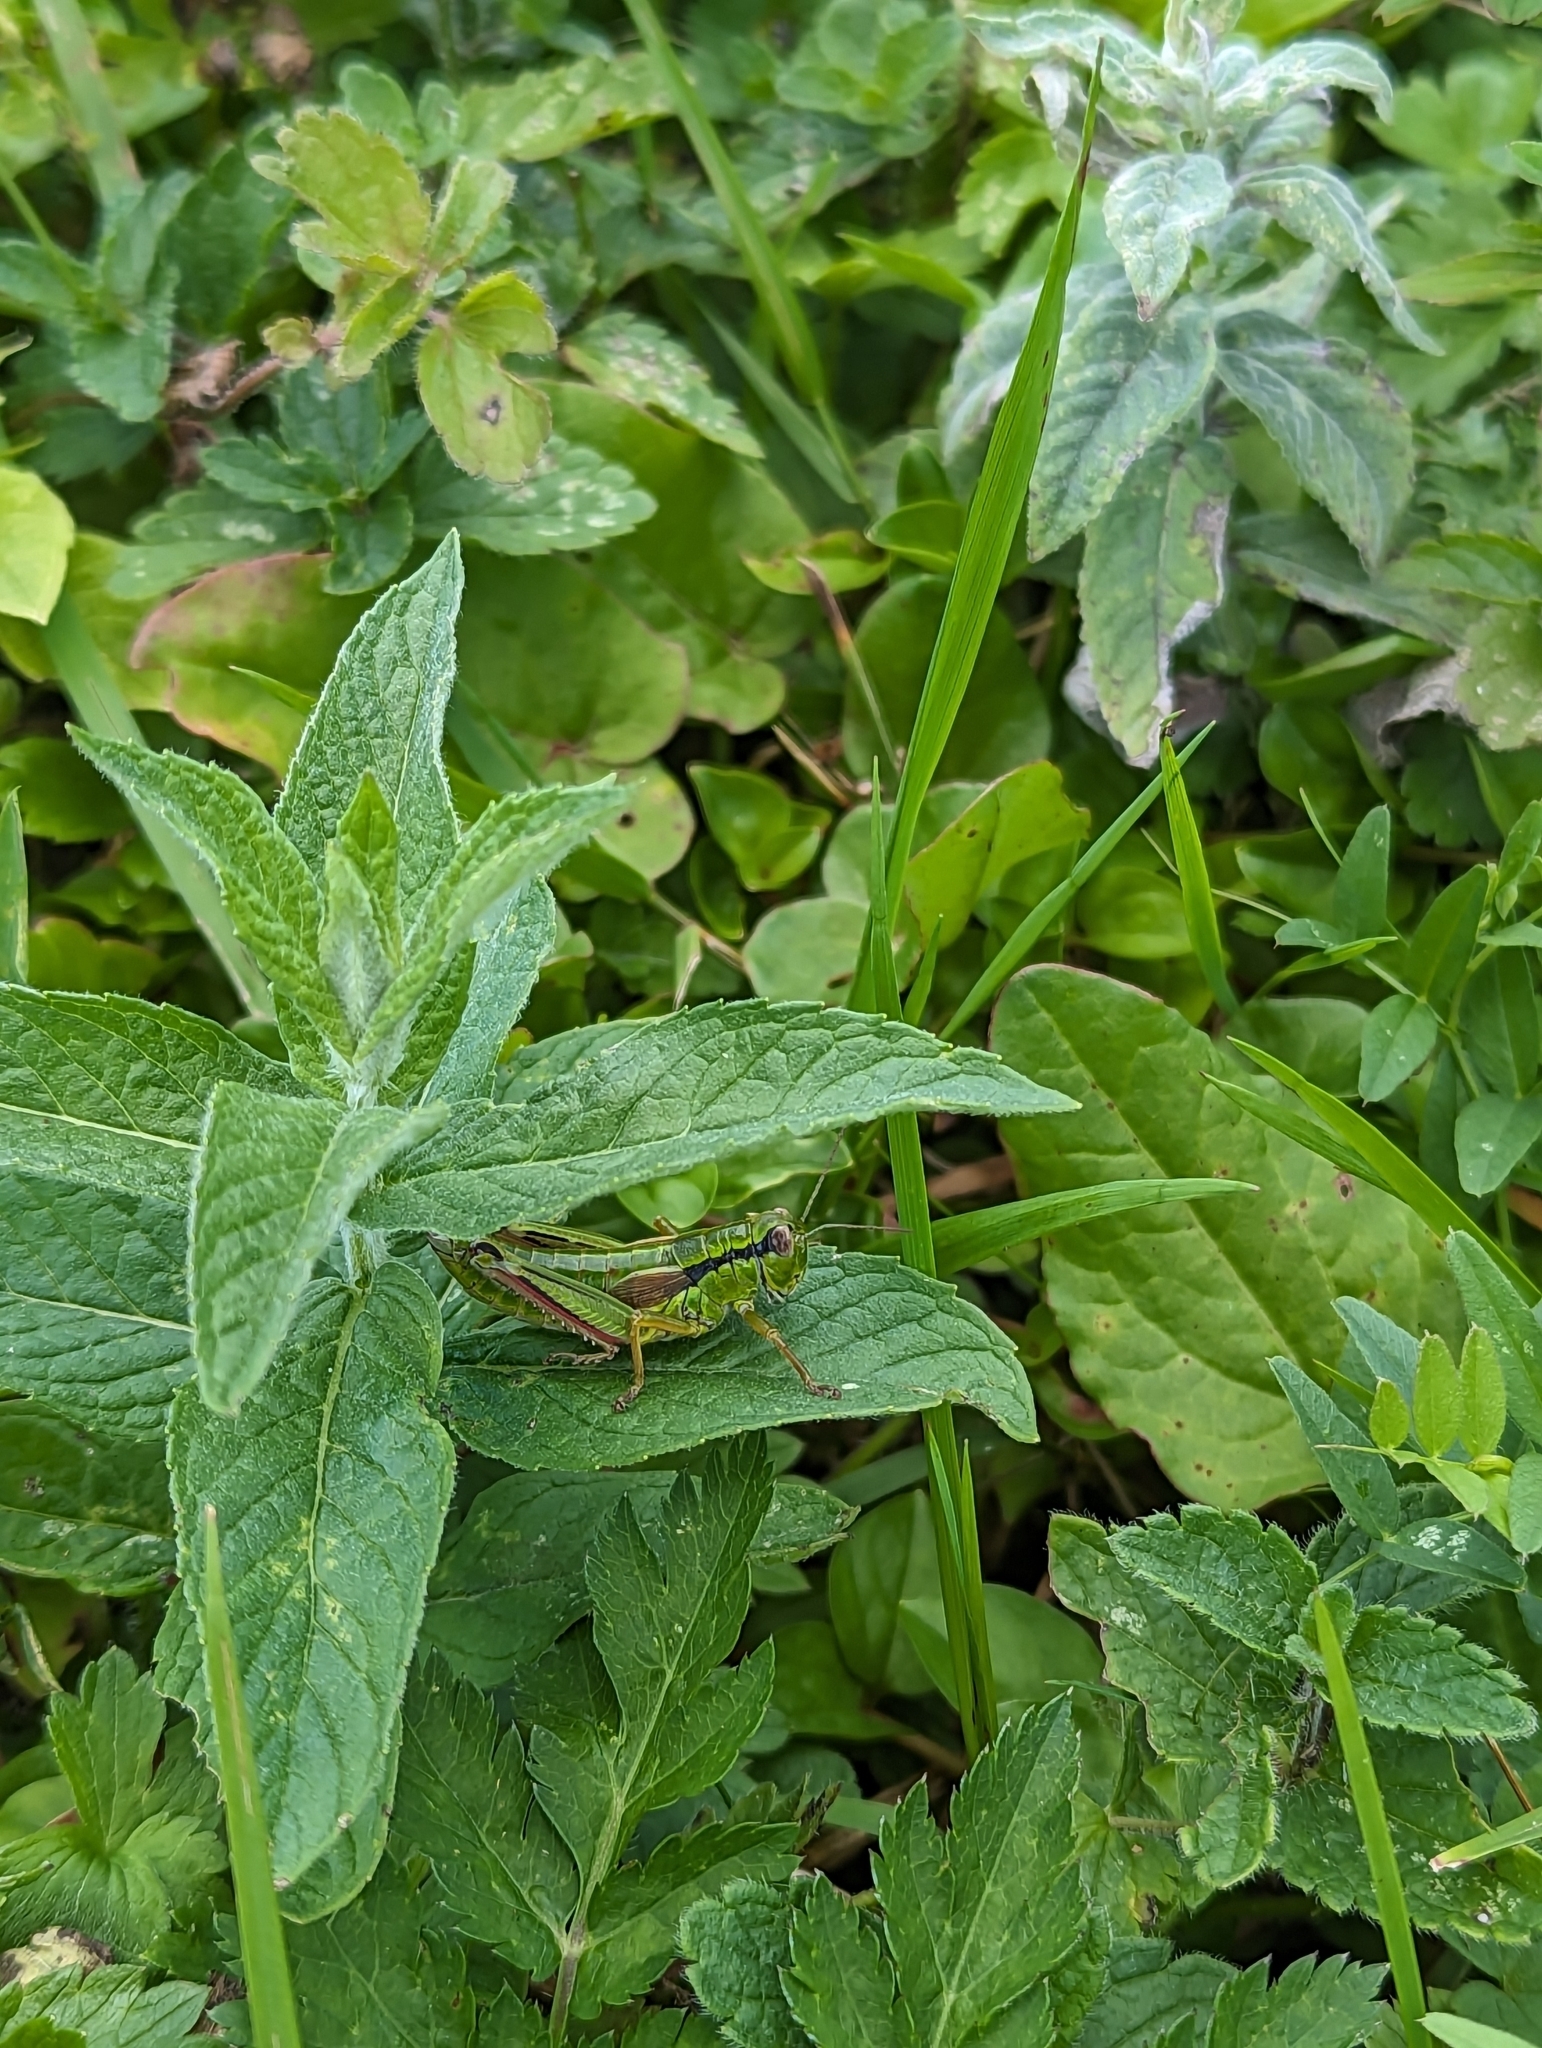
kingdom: Animalia
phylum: Arthropoda
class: Insecta
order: Orthoptera
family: Acrididae
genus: Miramella
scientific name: Miramella alpina
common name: Green mountain grasshopper
